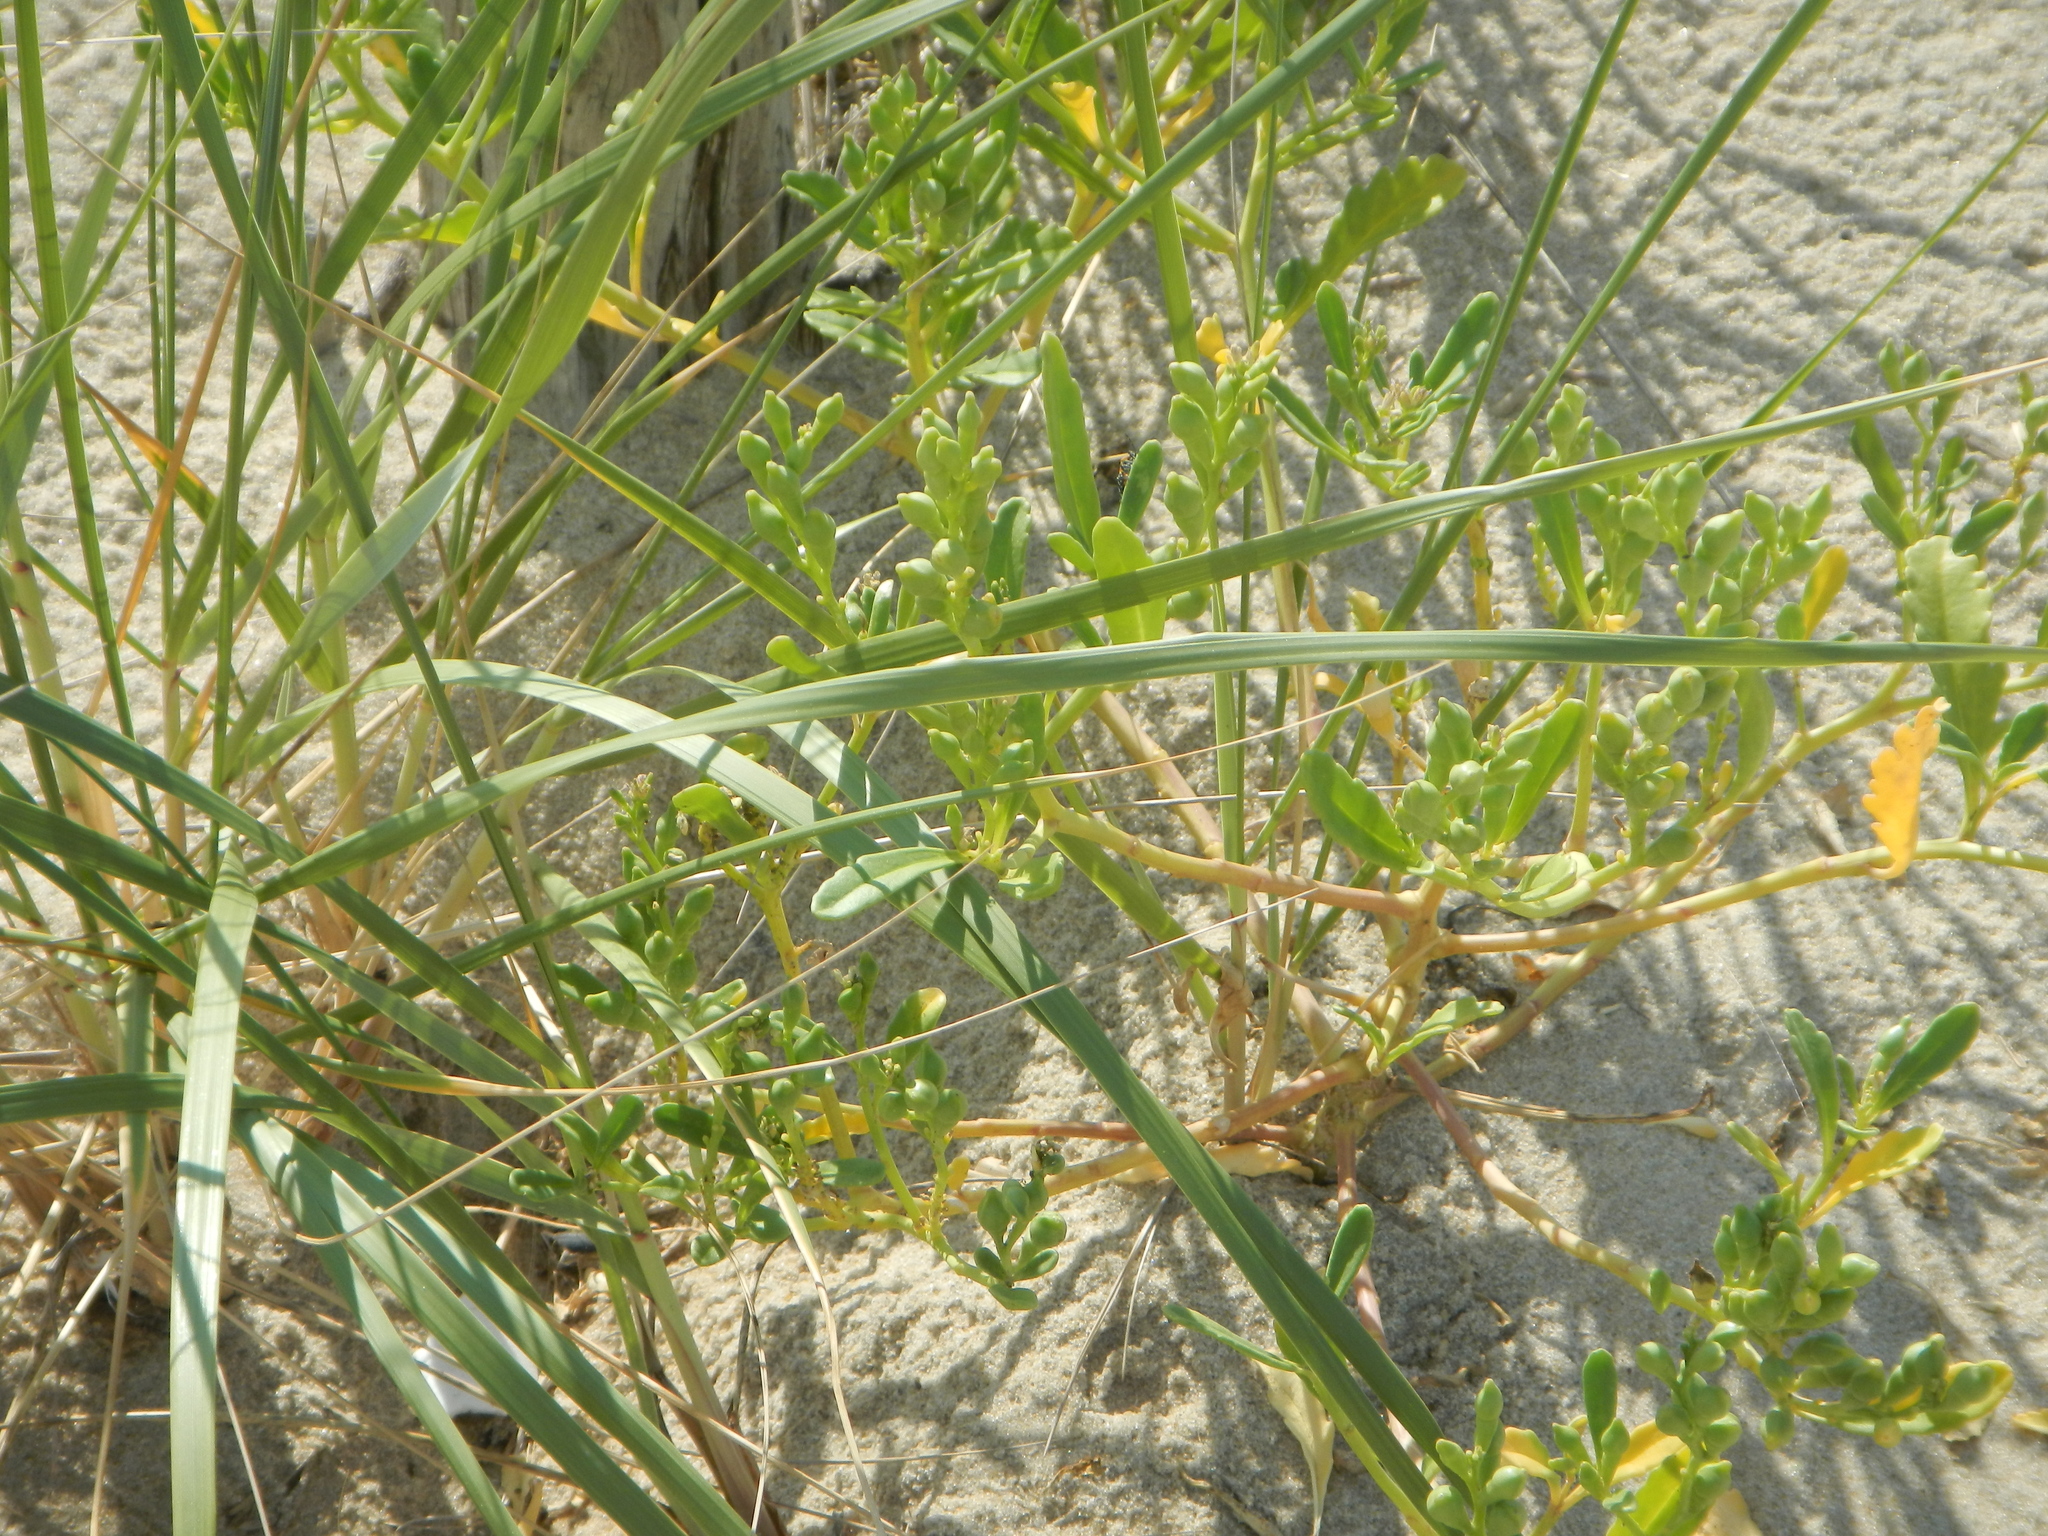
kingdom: Plantae
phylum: Tracheophyta
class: Magnoliopsida
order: Brassicales
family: Brassicaceae
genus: Cakile
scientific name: Cakile edentula
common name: American sea rocket
